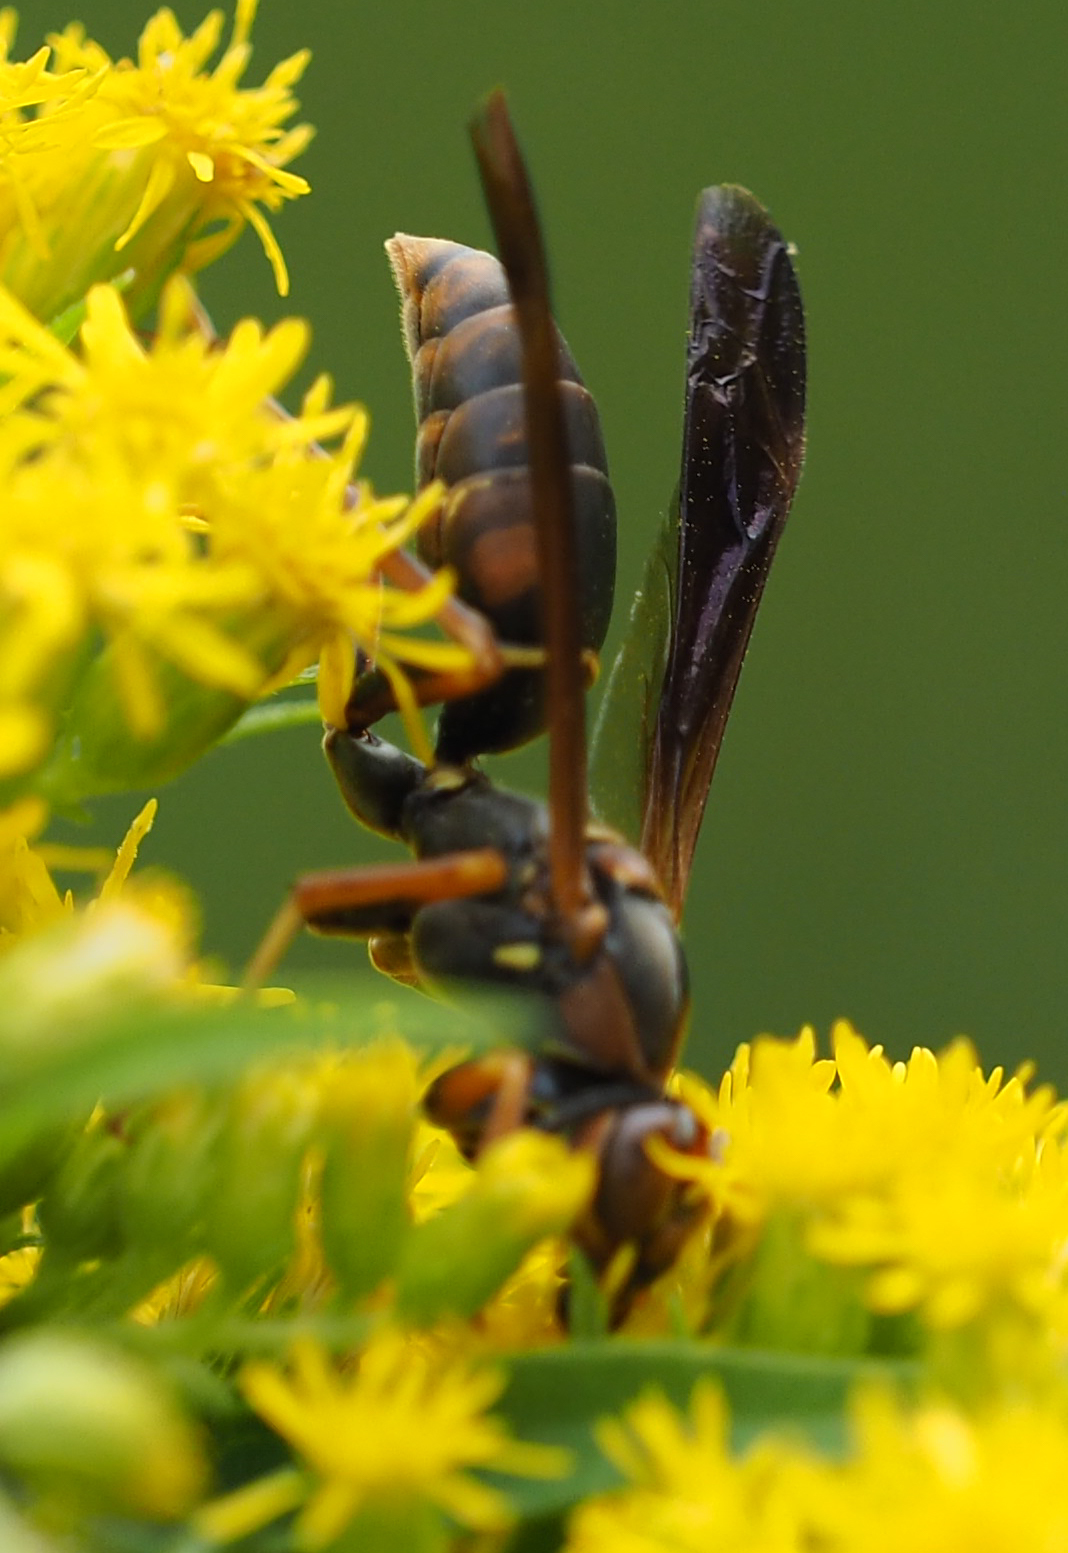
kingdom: Animalia
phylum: Arthropoda
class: Insecta
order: Hymenoptera
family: Eumenidae
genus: Polistes
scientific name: Polistes fuscatus
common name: Dark paper wasp
